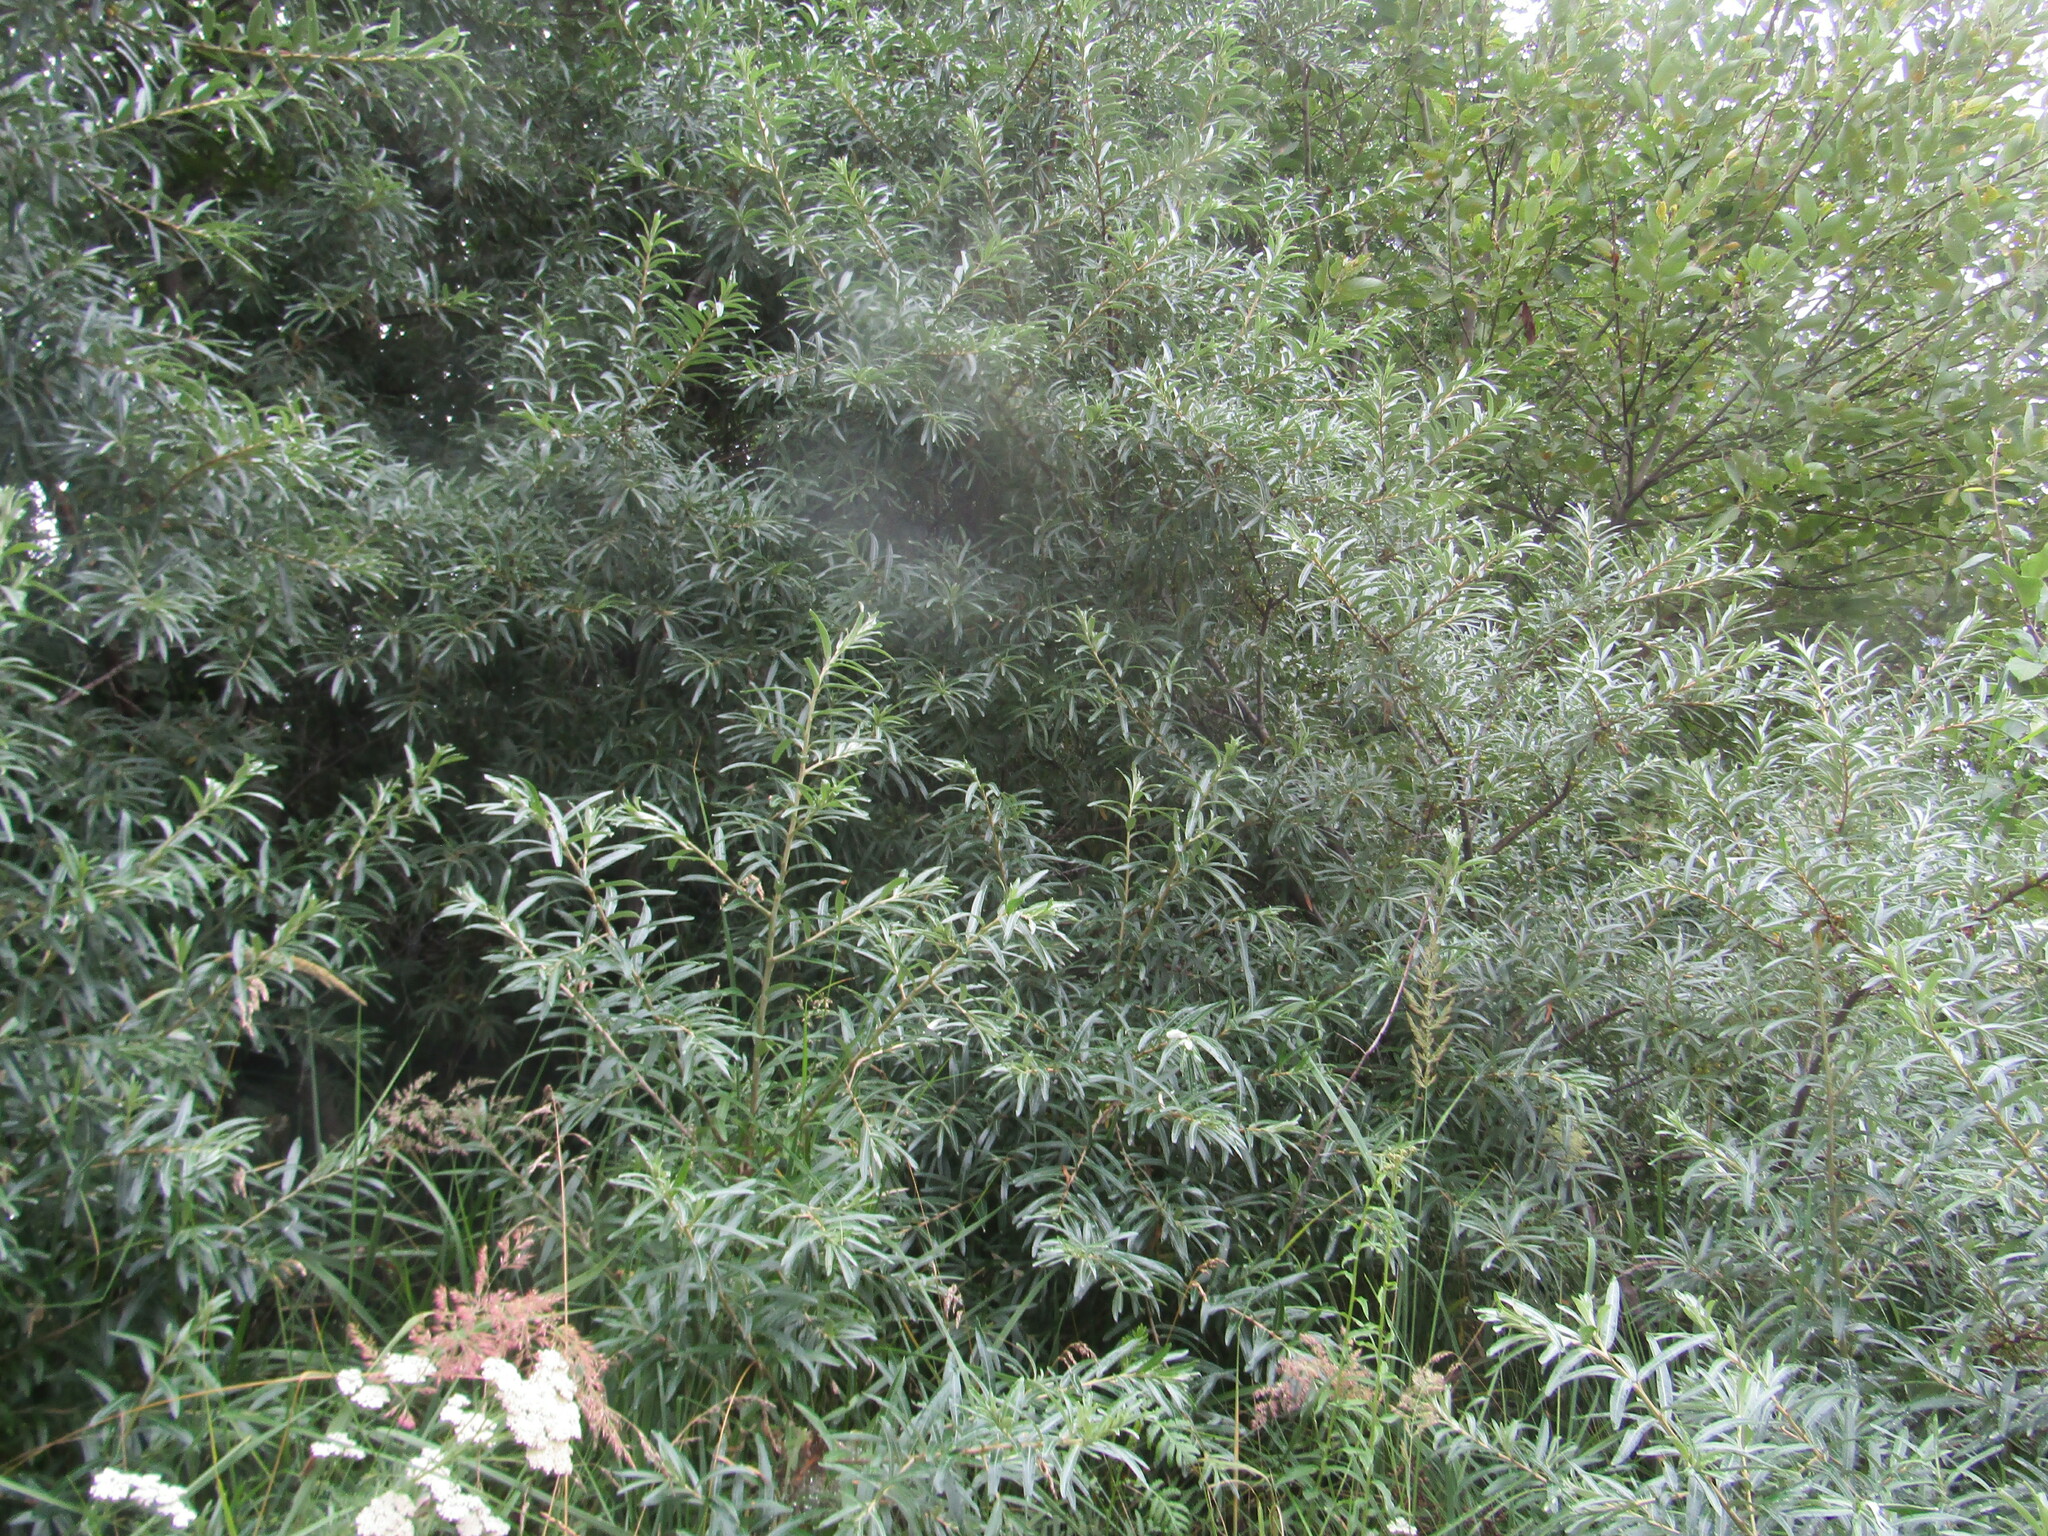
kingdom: Plantae
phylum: Tracheophyta
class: Magnoliopsida
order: Rosales
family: Elaeagnaceae
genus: Hippophae
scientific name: Hippophae rhamnoides
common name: Sea-buckthorn
